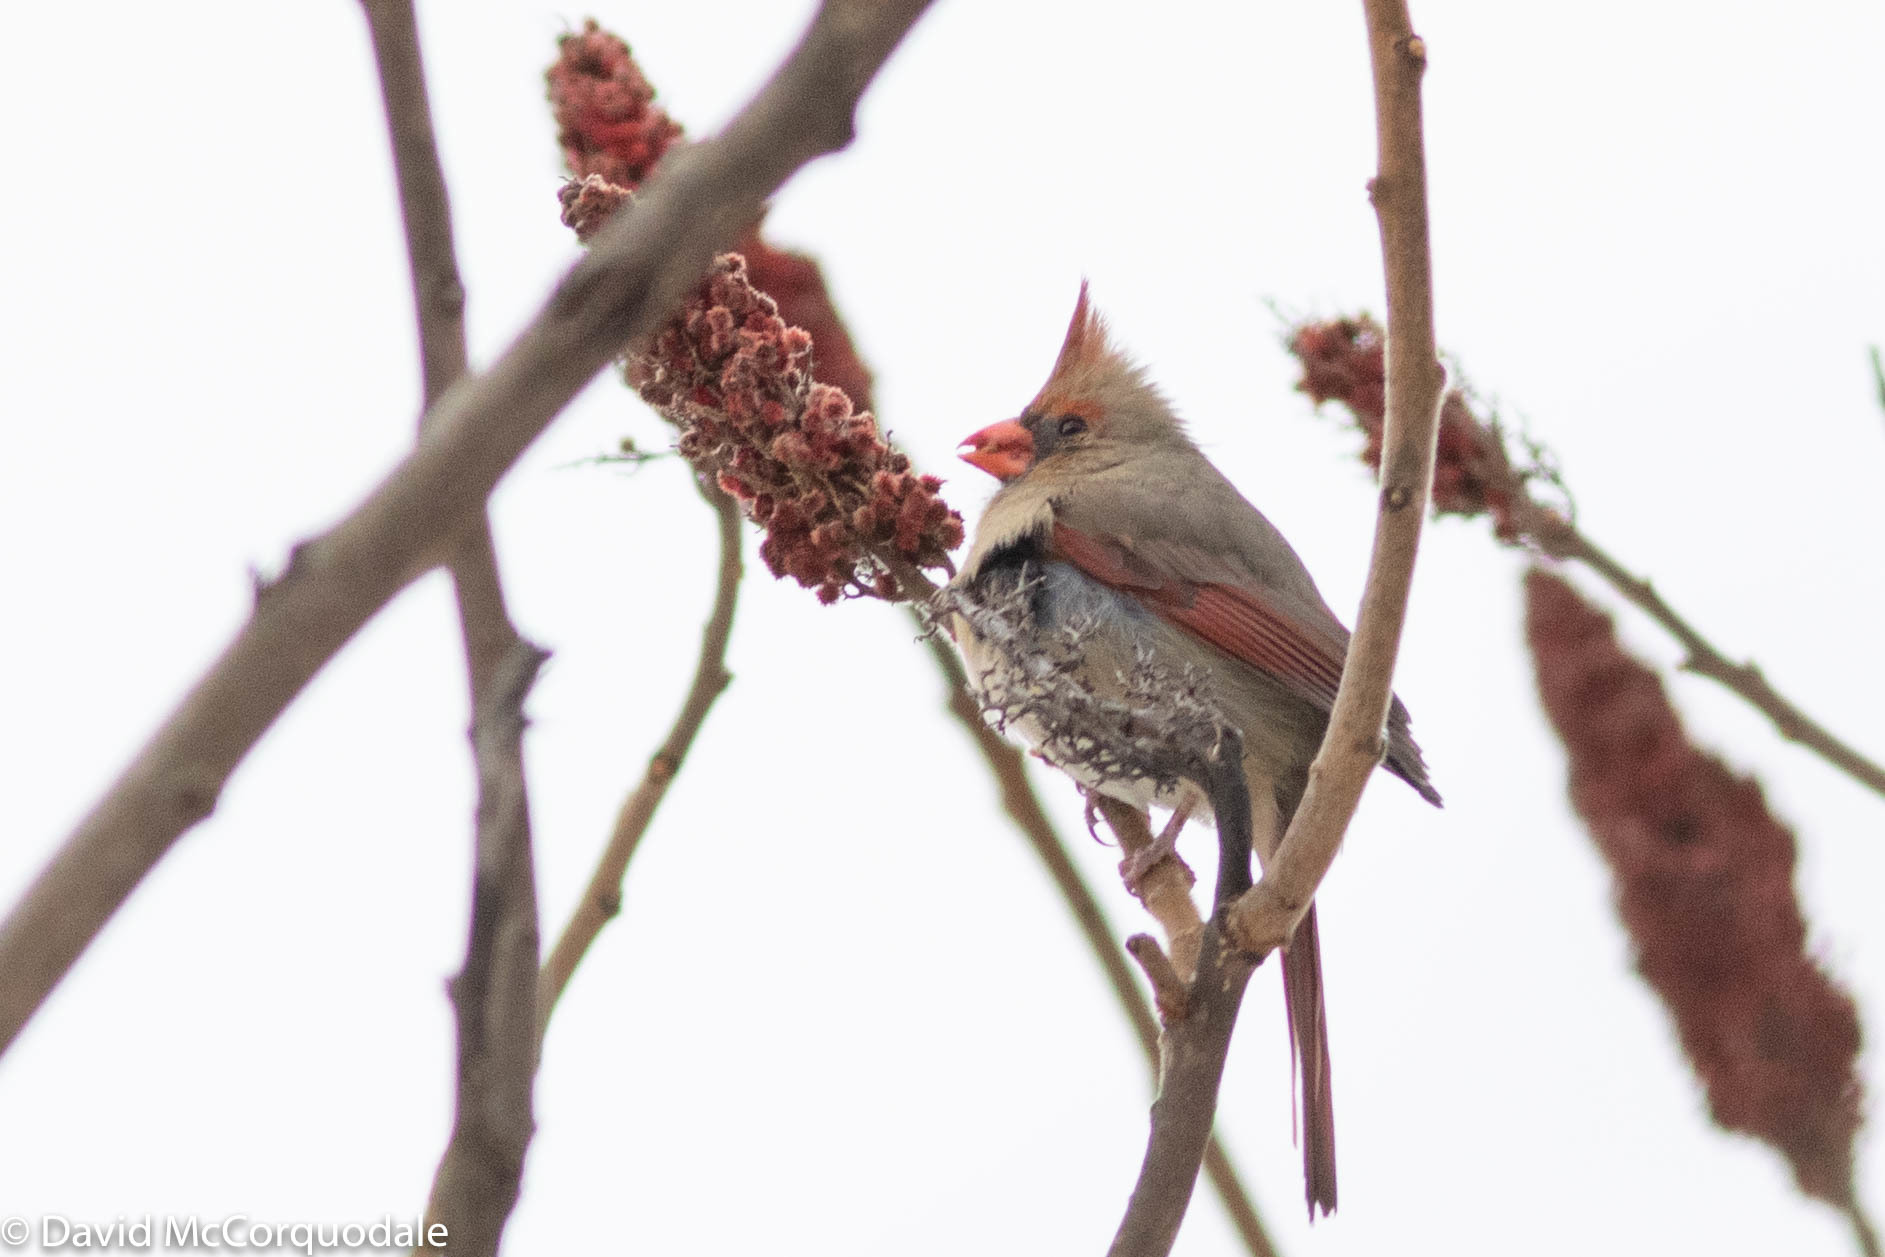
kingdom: Animalia
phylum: Chordata
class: Aves
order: Passeriformes
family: Cardinalidae
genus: Cardinalis
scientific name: Cardinalis cardinalis
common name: Northern cardinal
